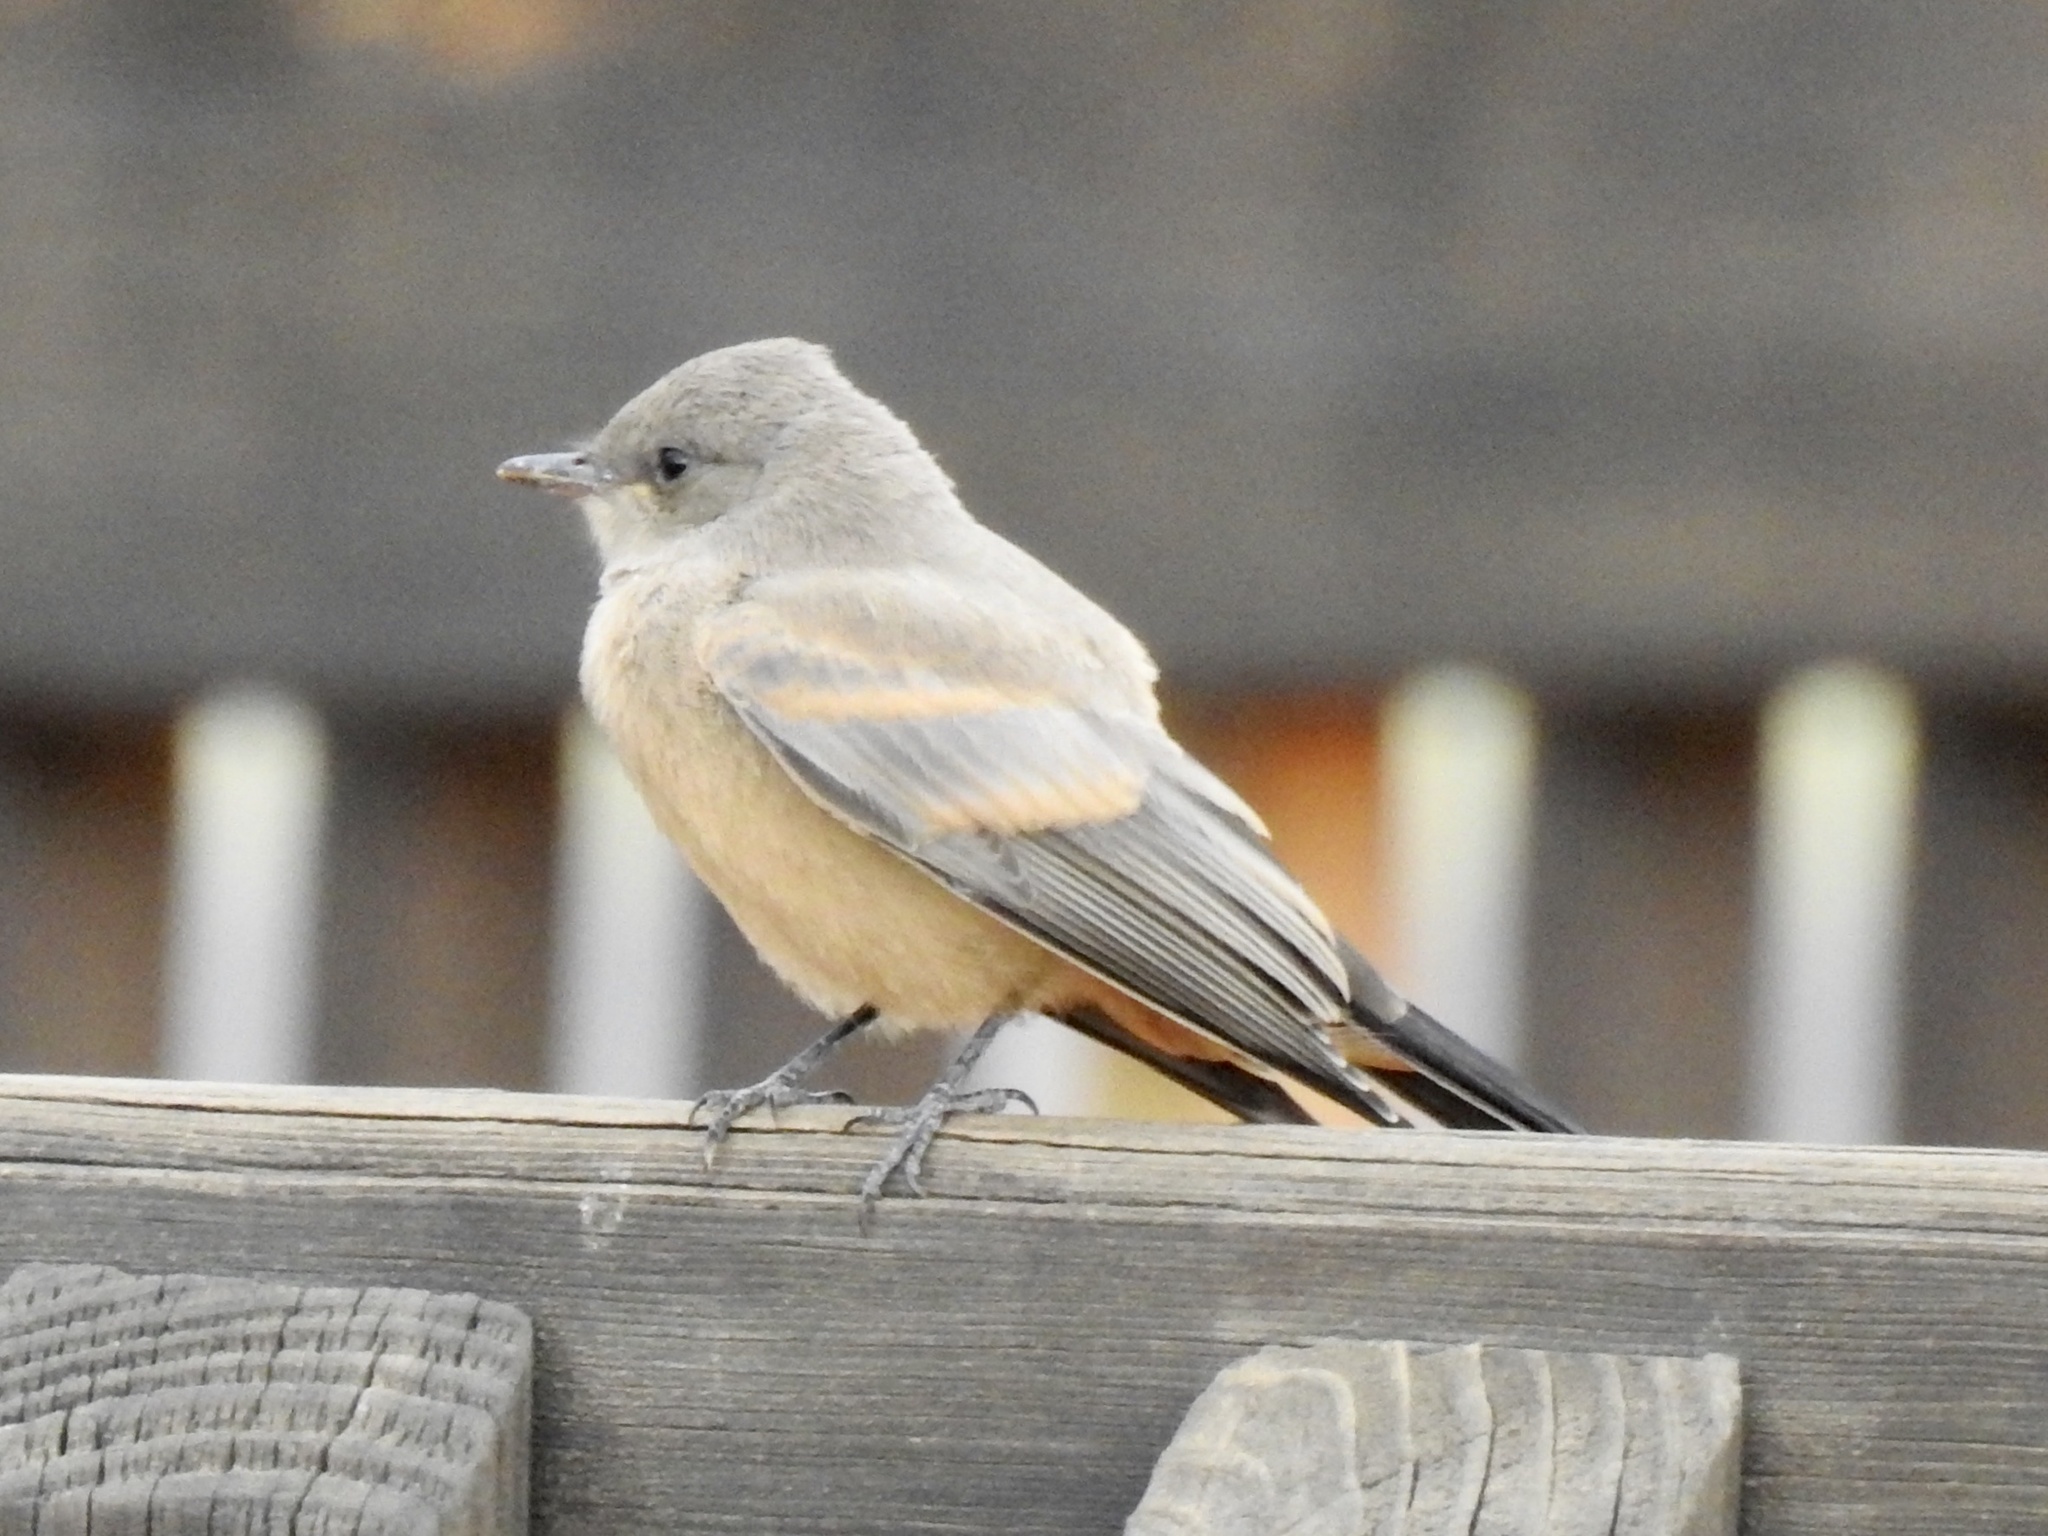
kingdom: Animalia
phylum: Chordata
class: Aves
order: Passeriformes
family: Tyrannidae
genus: Sayornis
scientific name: Sayornis saya
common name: Say's phoebe
